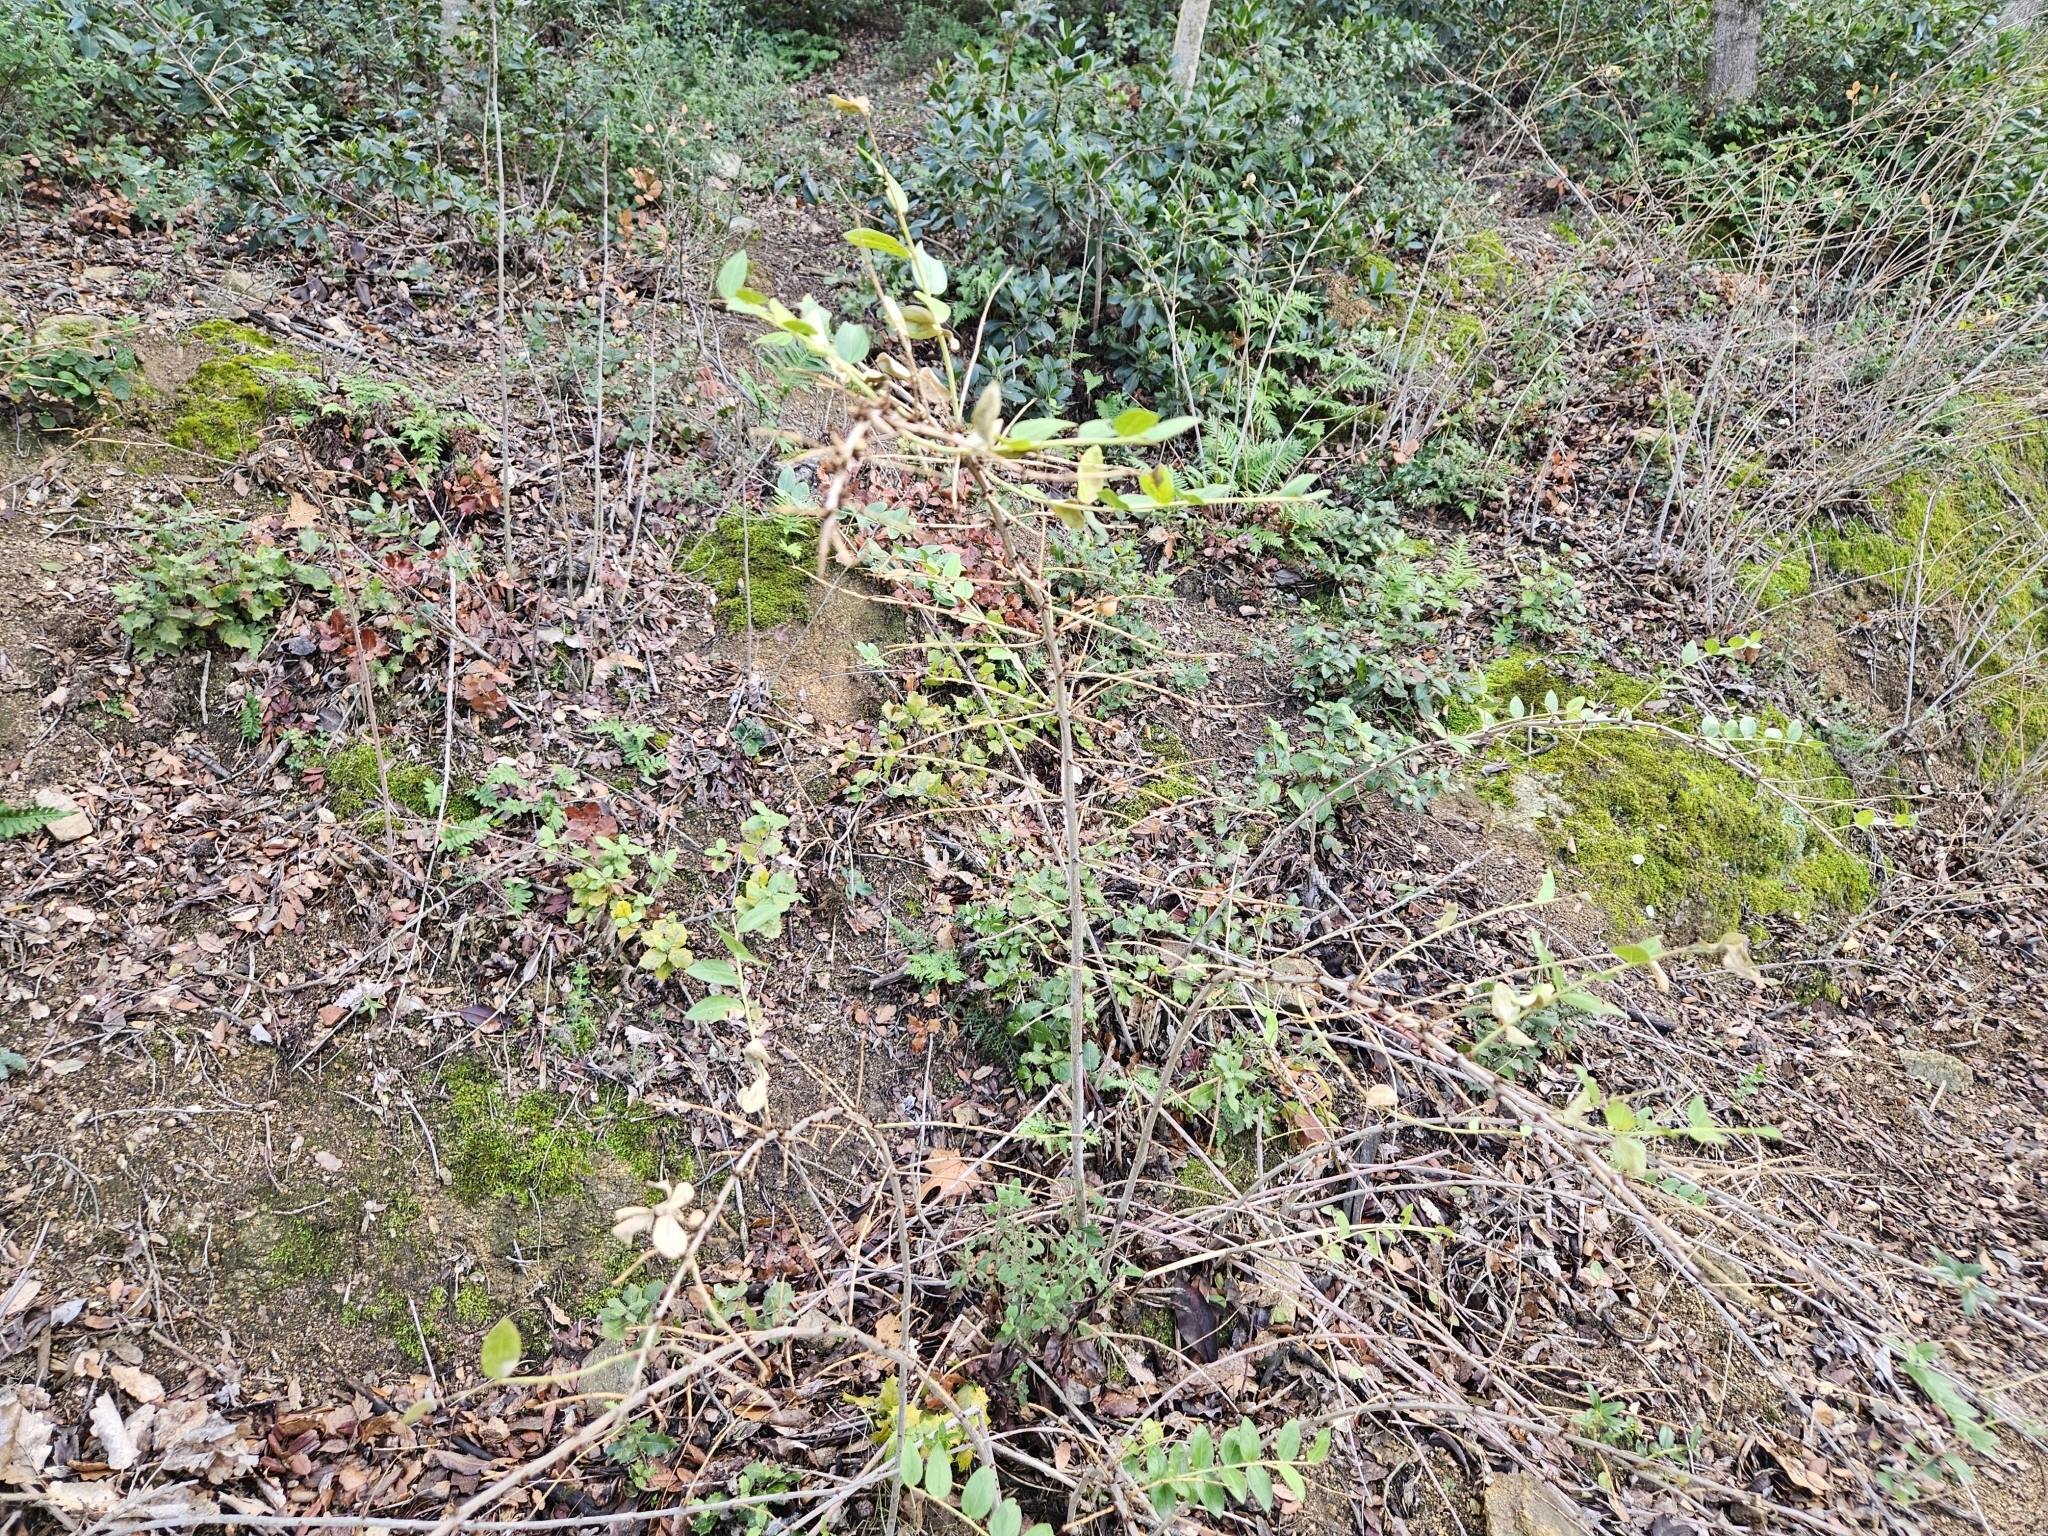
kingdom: Plantae
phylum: Tracheophyta
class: Magnoliopsida
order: Cucurbitales
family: Coriariaceae
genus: Coriaria
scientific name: Coriaria myrtifolia
